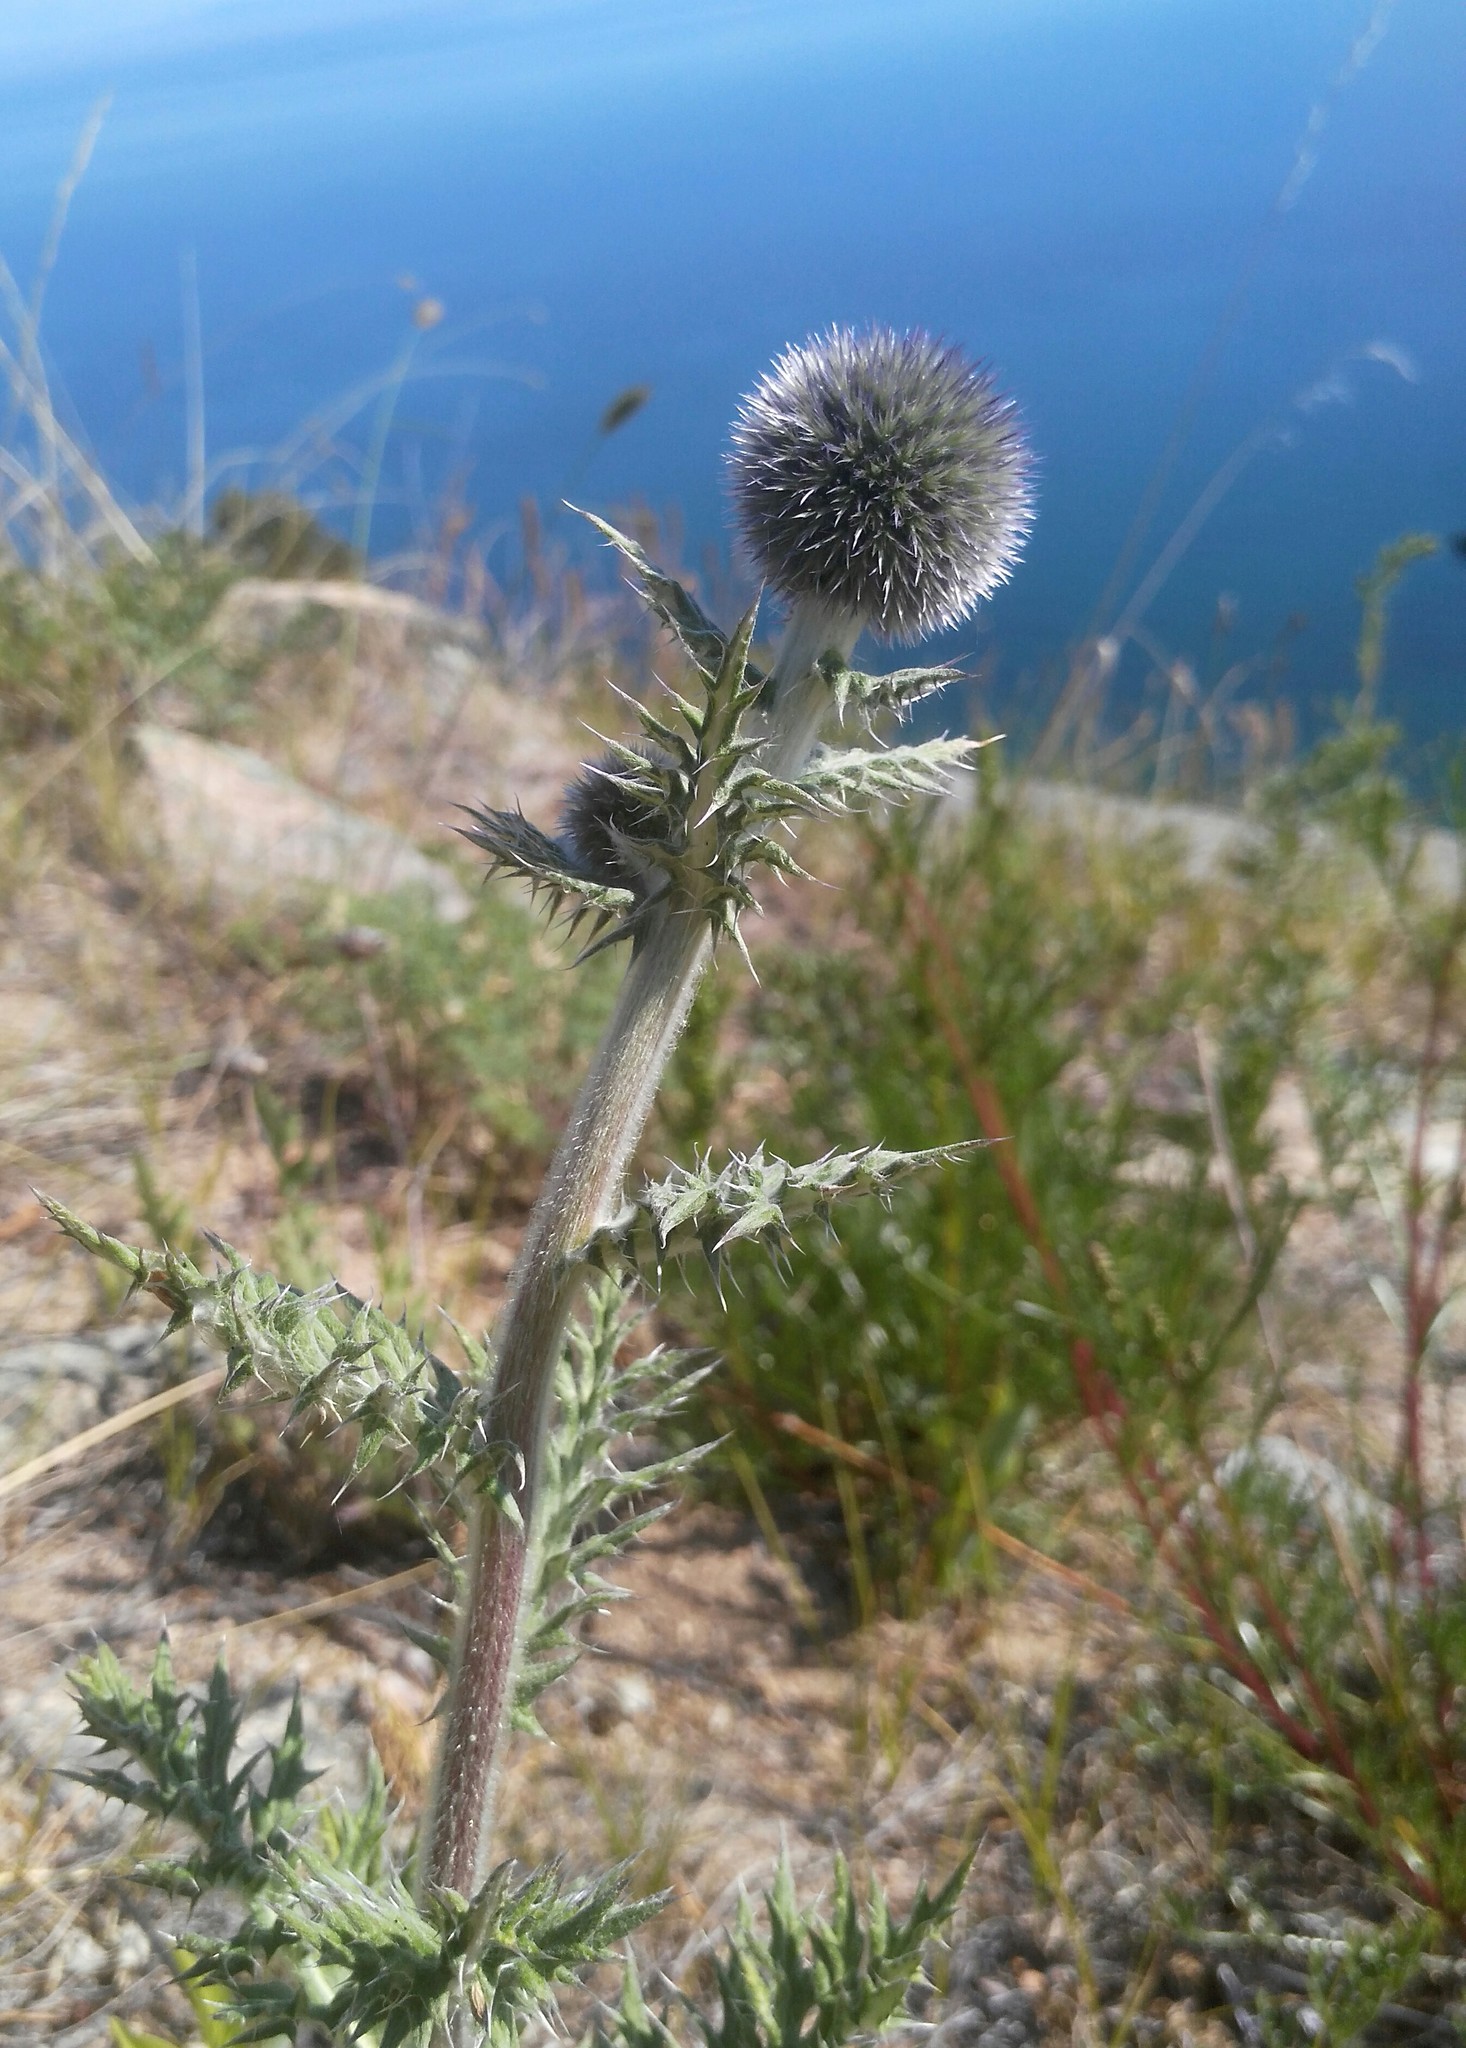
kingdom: Plantae
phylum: Tracheophyta
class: Magnoliopsida
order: Asterales
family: Asteraceae
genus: Echinops
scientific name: Echinops davuricus
